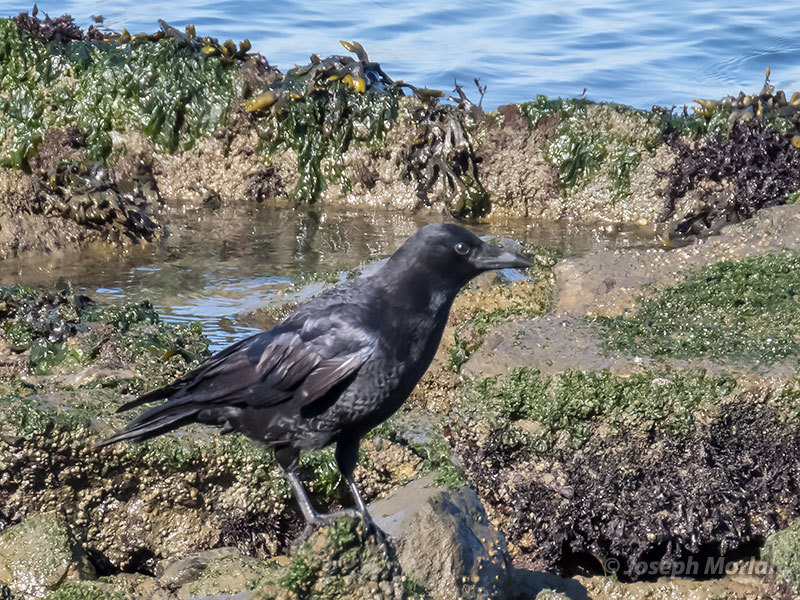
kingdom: Animalia
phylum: Chordata
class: Aves
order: Passeriformes
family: Corvidae
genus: Corvus
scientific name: Corvus brachyrhynchos
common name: American crow
